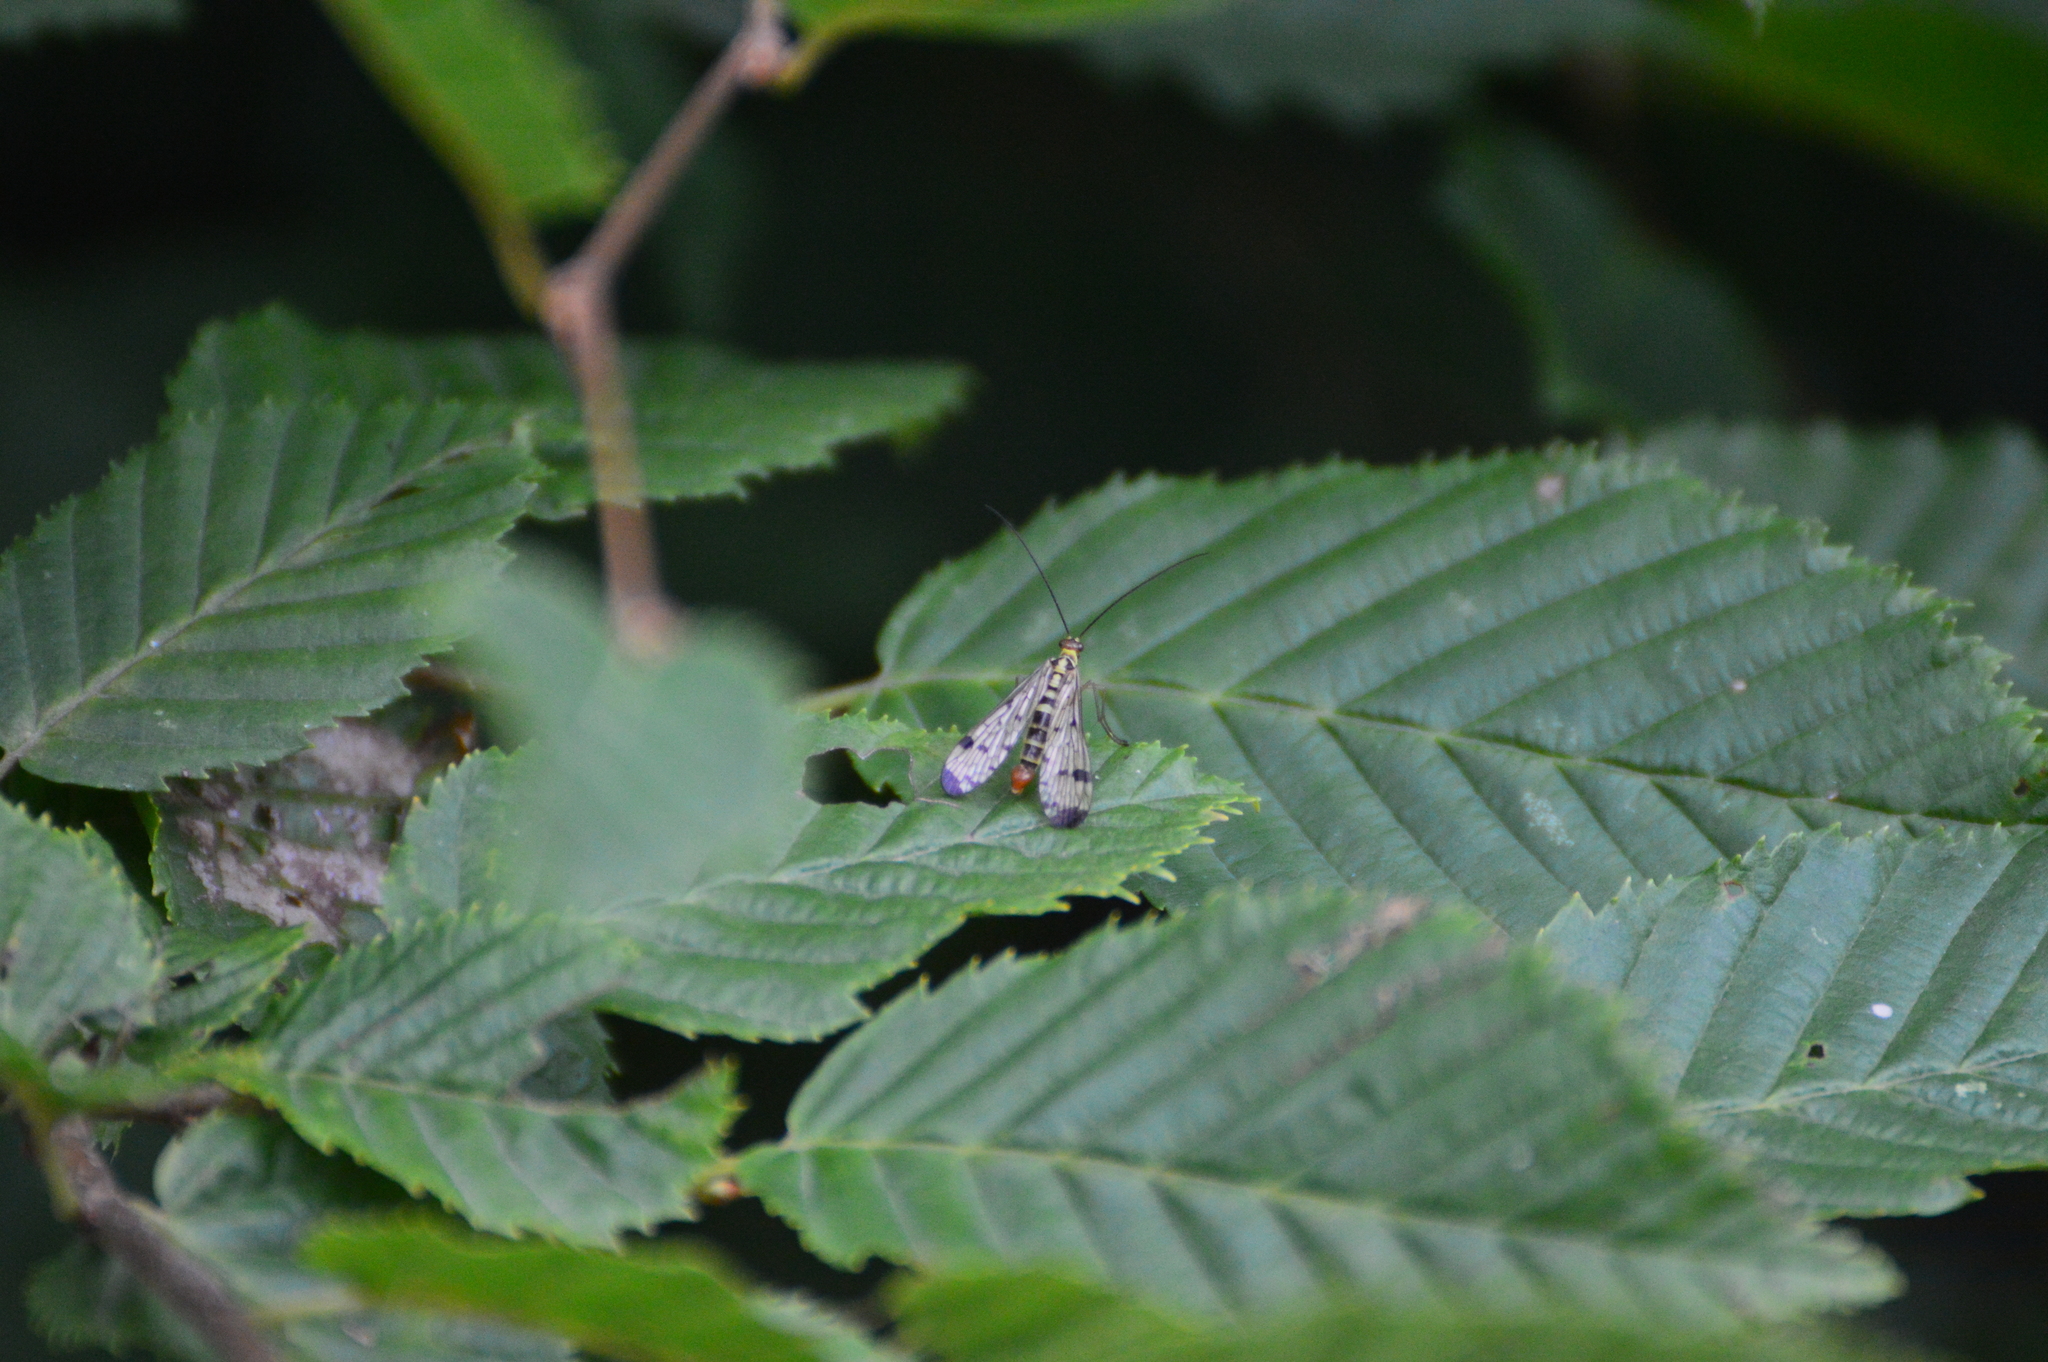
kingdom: Animalia
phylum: Arthropoda
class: Insecta
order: Mecoptera
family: Panorpidae
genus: Panorpa
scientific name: Panorpa
